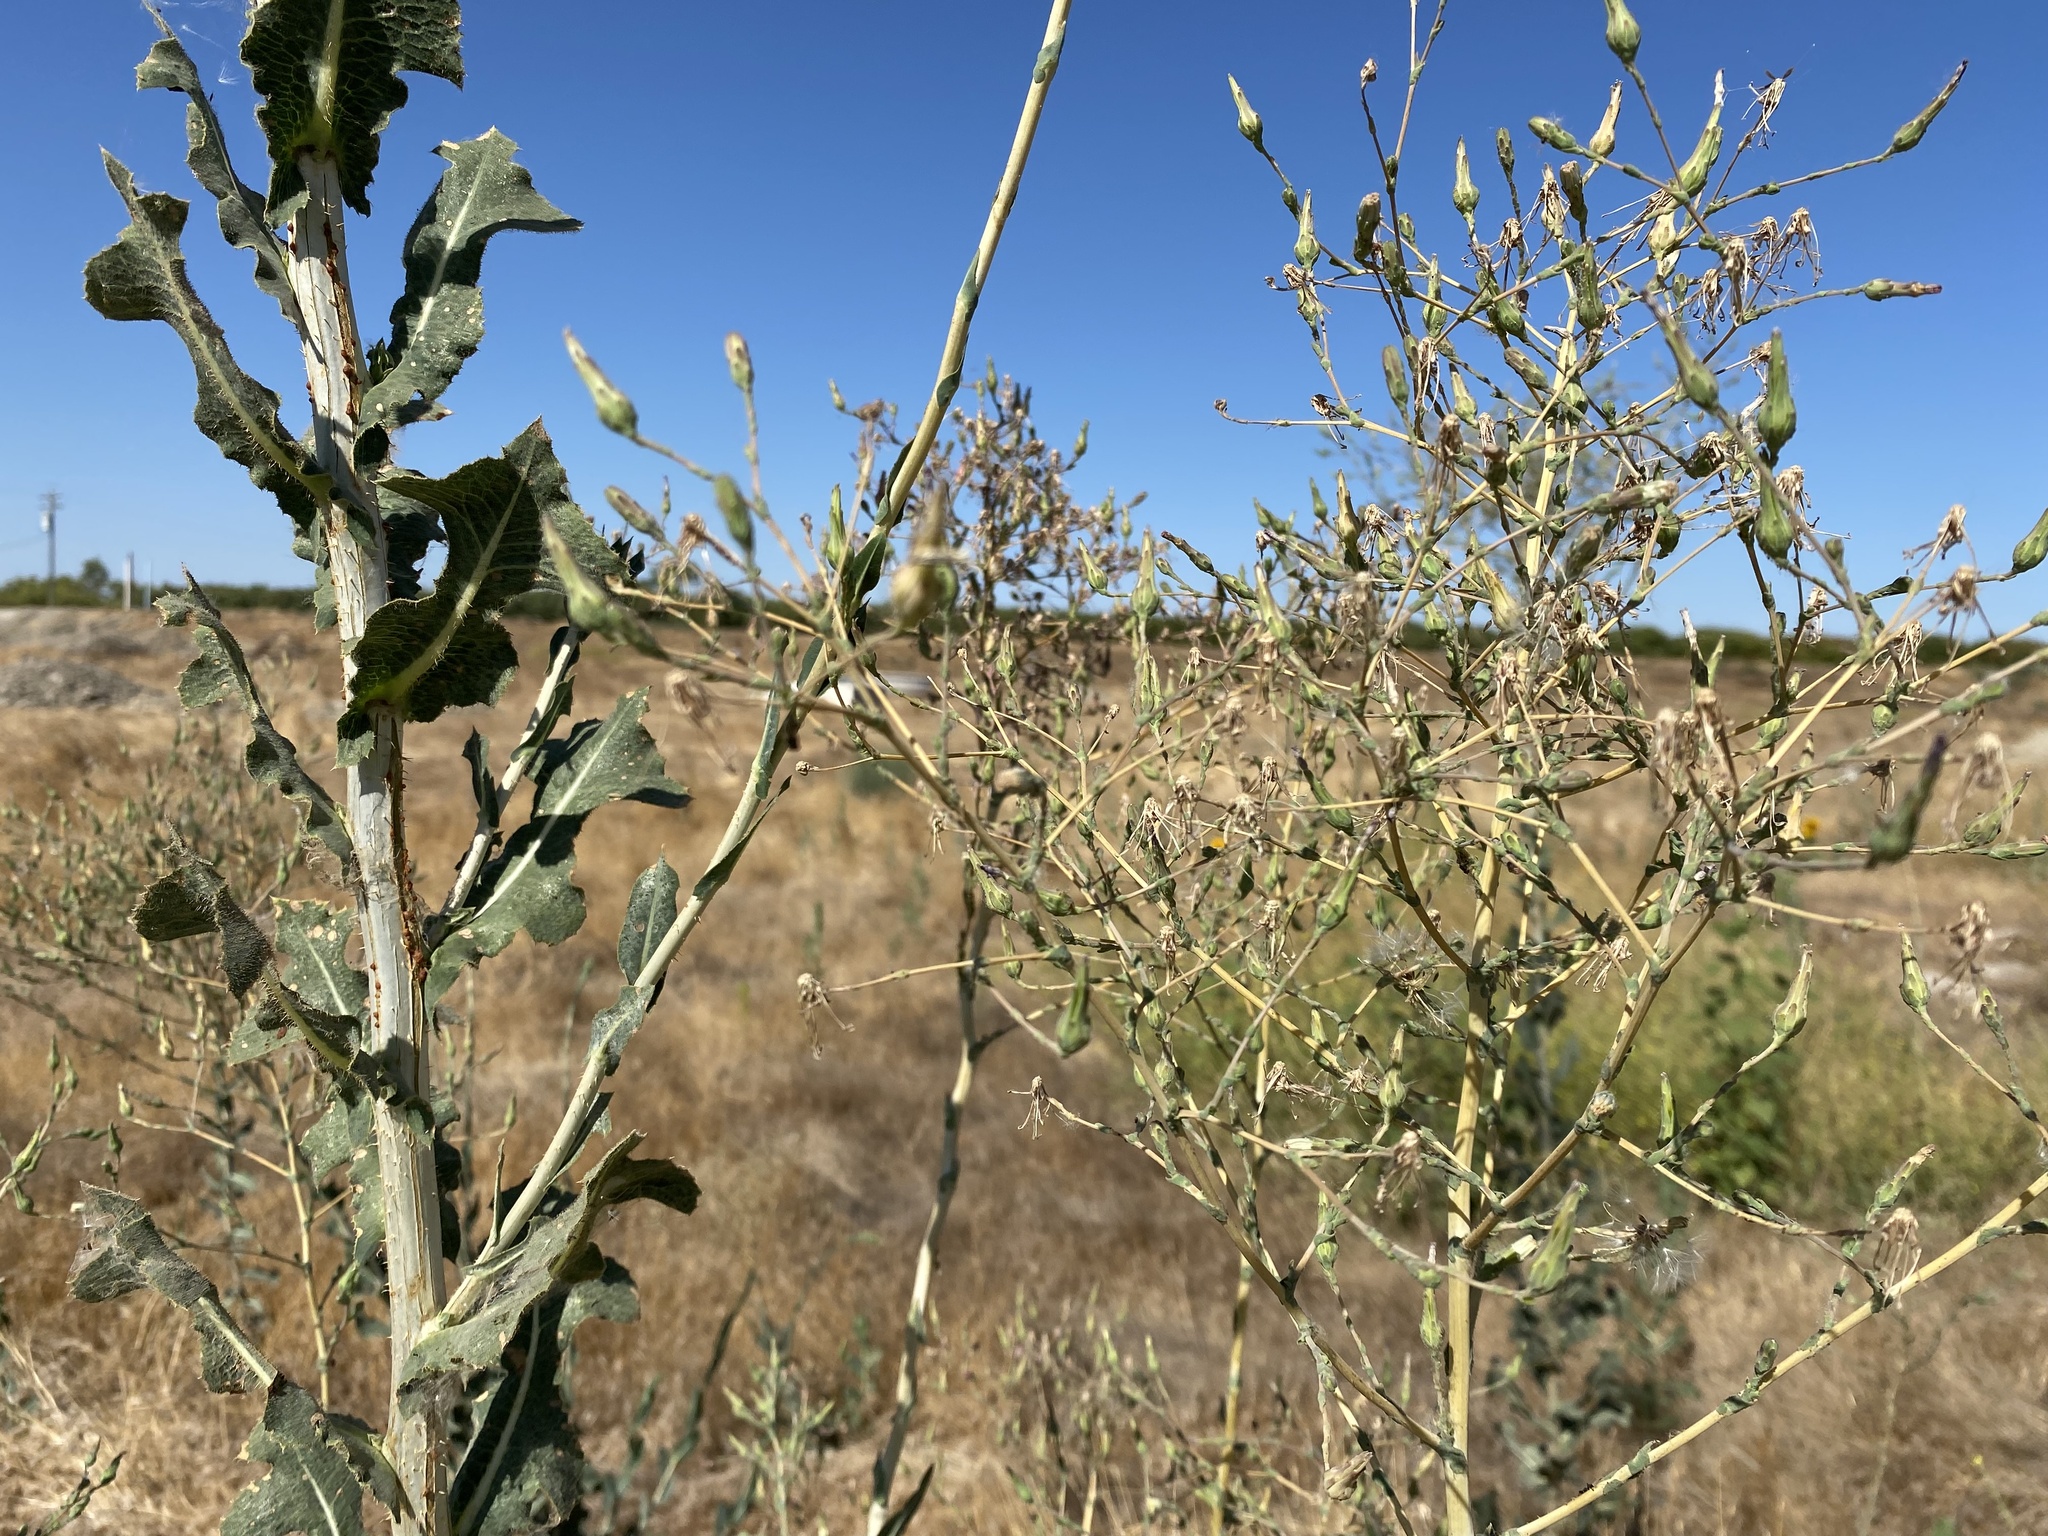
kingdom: Plantae
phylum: Tracheophyta
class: Magnoliopsida
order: Asterales
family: Asteraceae
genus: Lactuca
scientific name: Lactuca serriola
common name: Prickly lettuce
